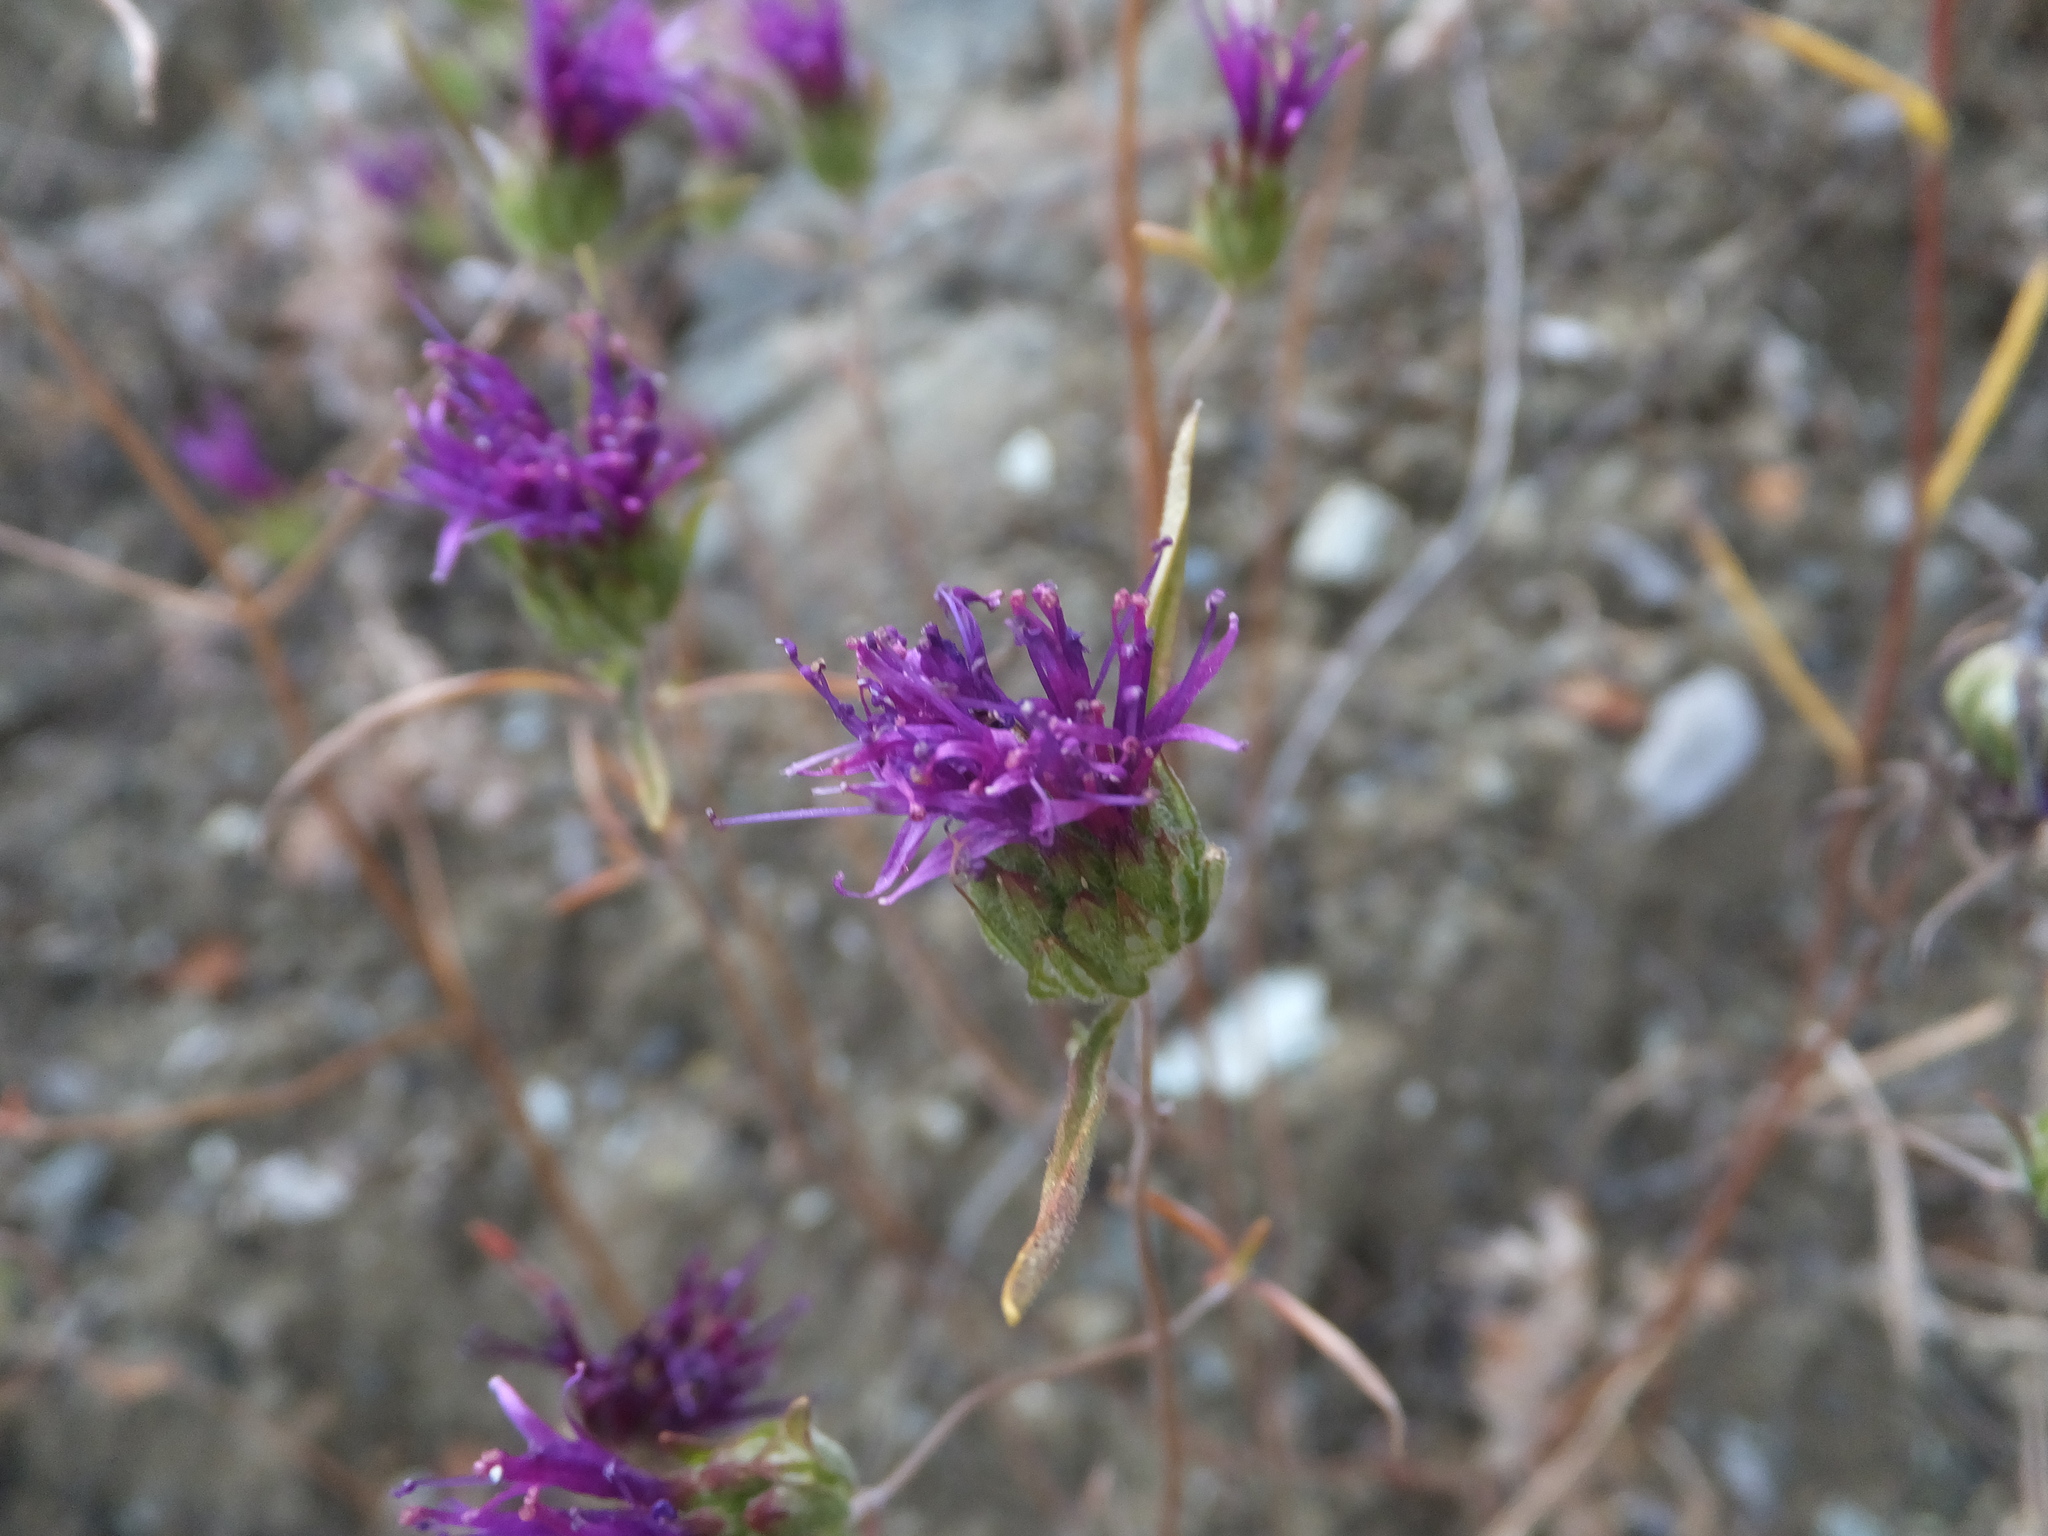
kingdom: Plantae
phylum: Tracheophyta
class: Magnoliopsida
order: Lamiales
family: Lamiaceae
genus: Monardella
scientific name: Monardella douglasii
